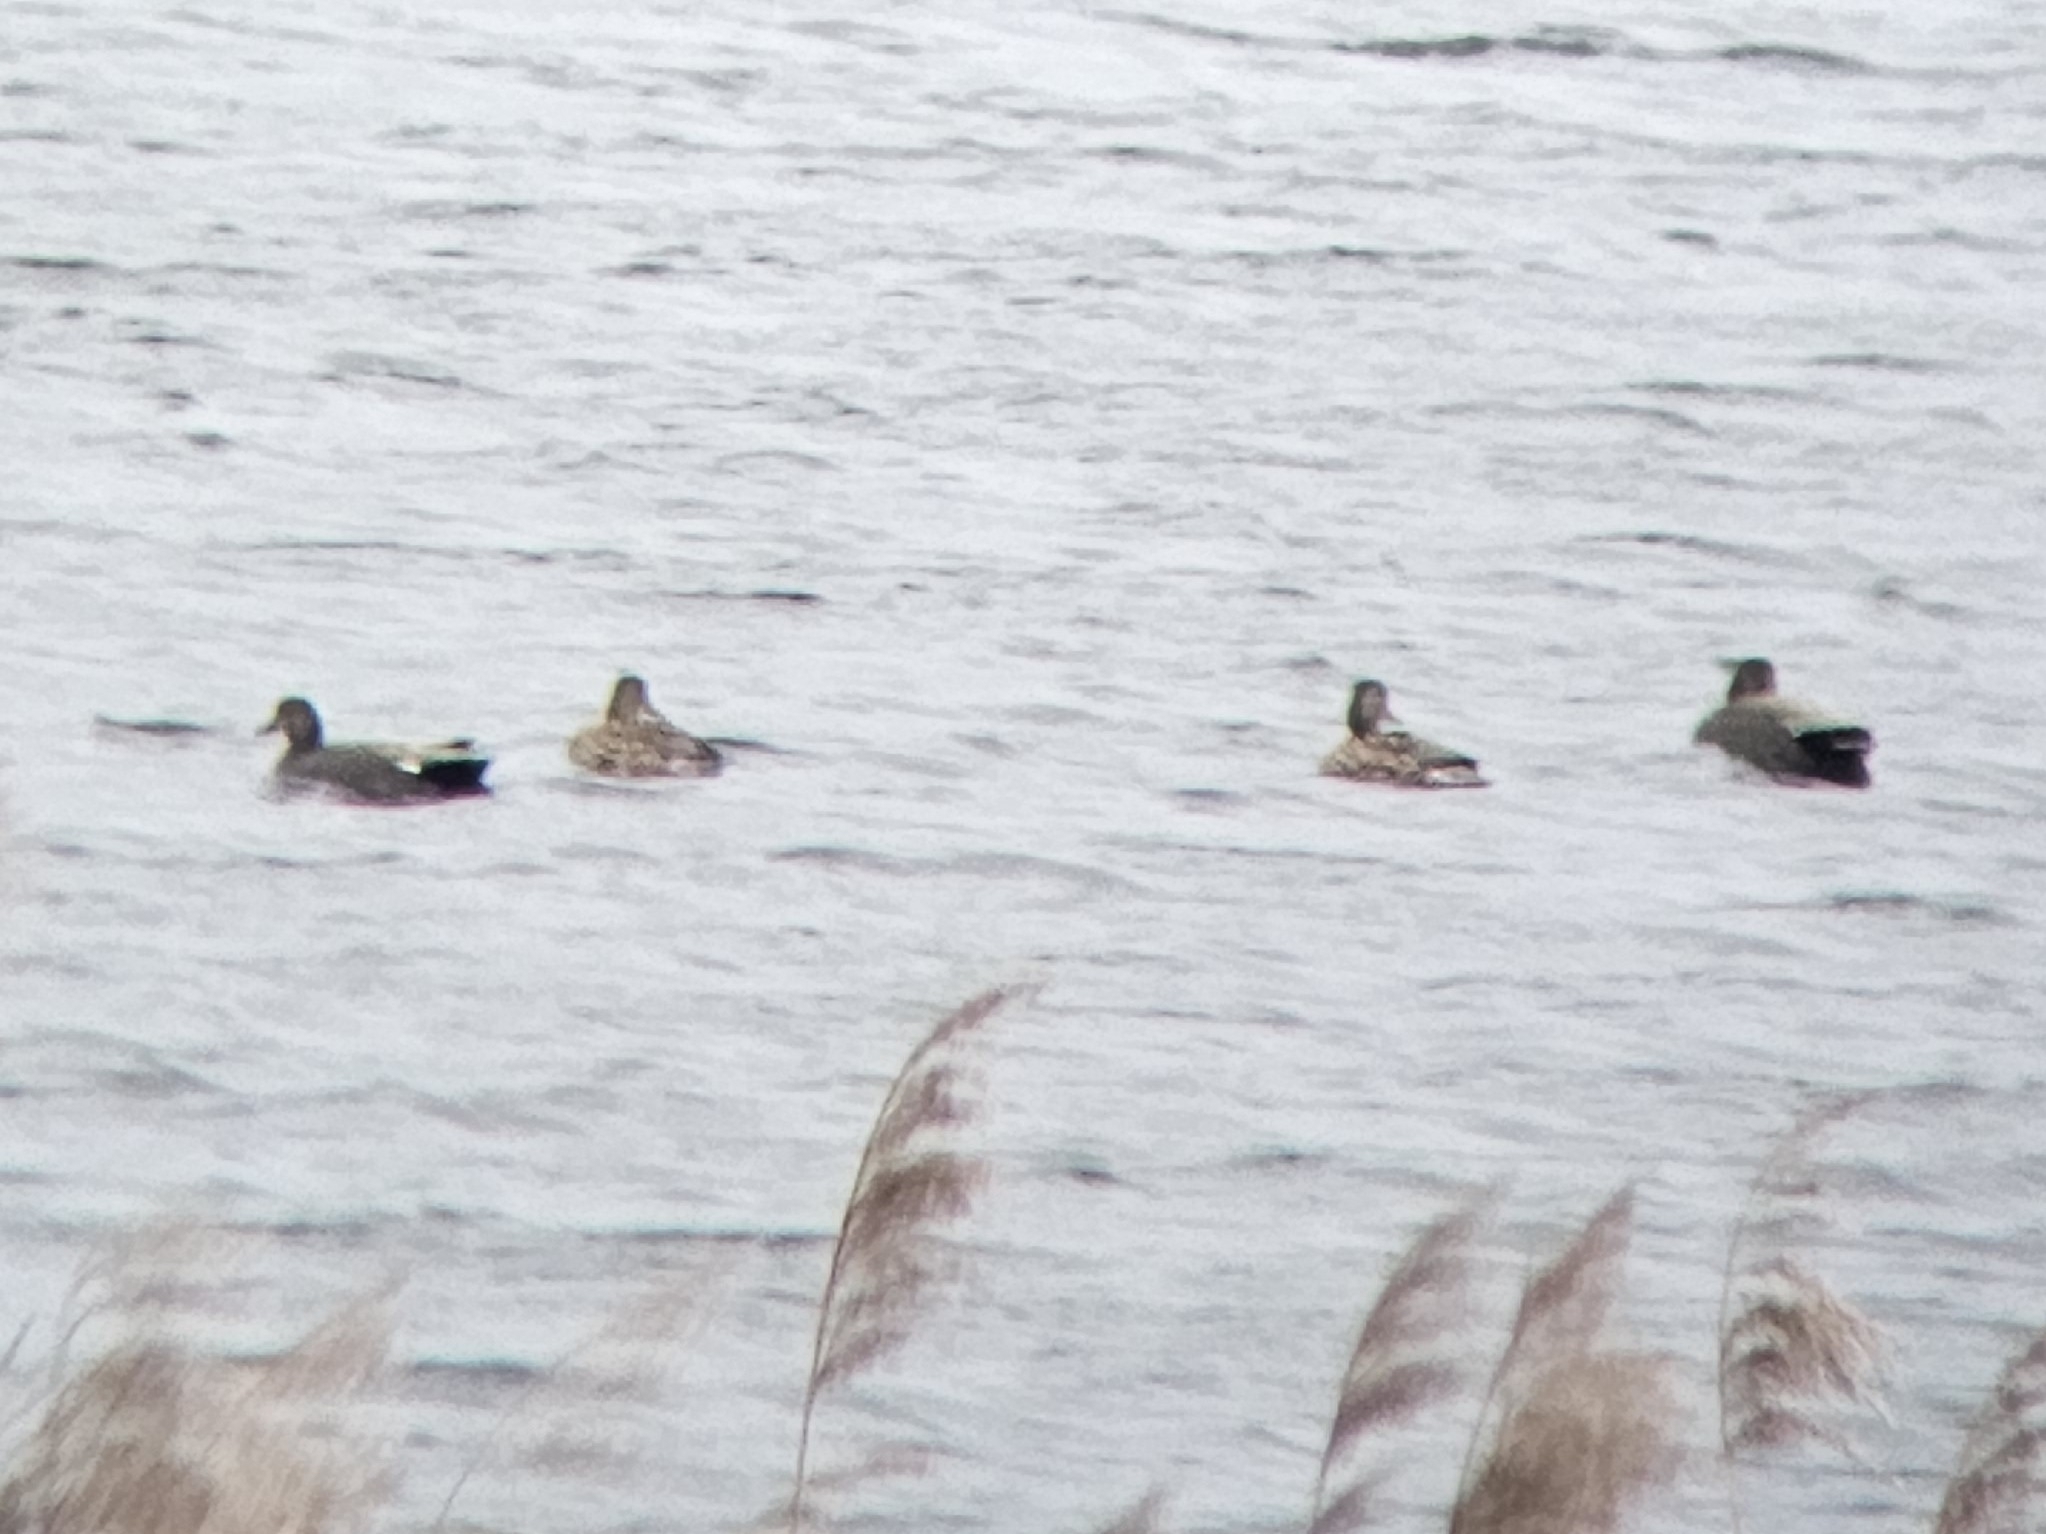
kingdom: Animalia
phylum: Chordata
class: Aves
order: Anseriformes
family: Anatidae
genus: Mareca
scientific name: Mareca strepera
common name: Gadwall
